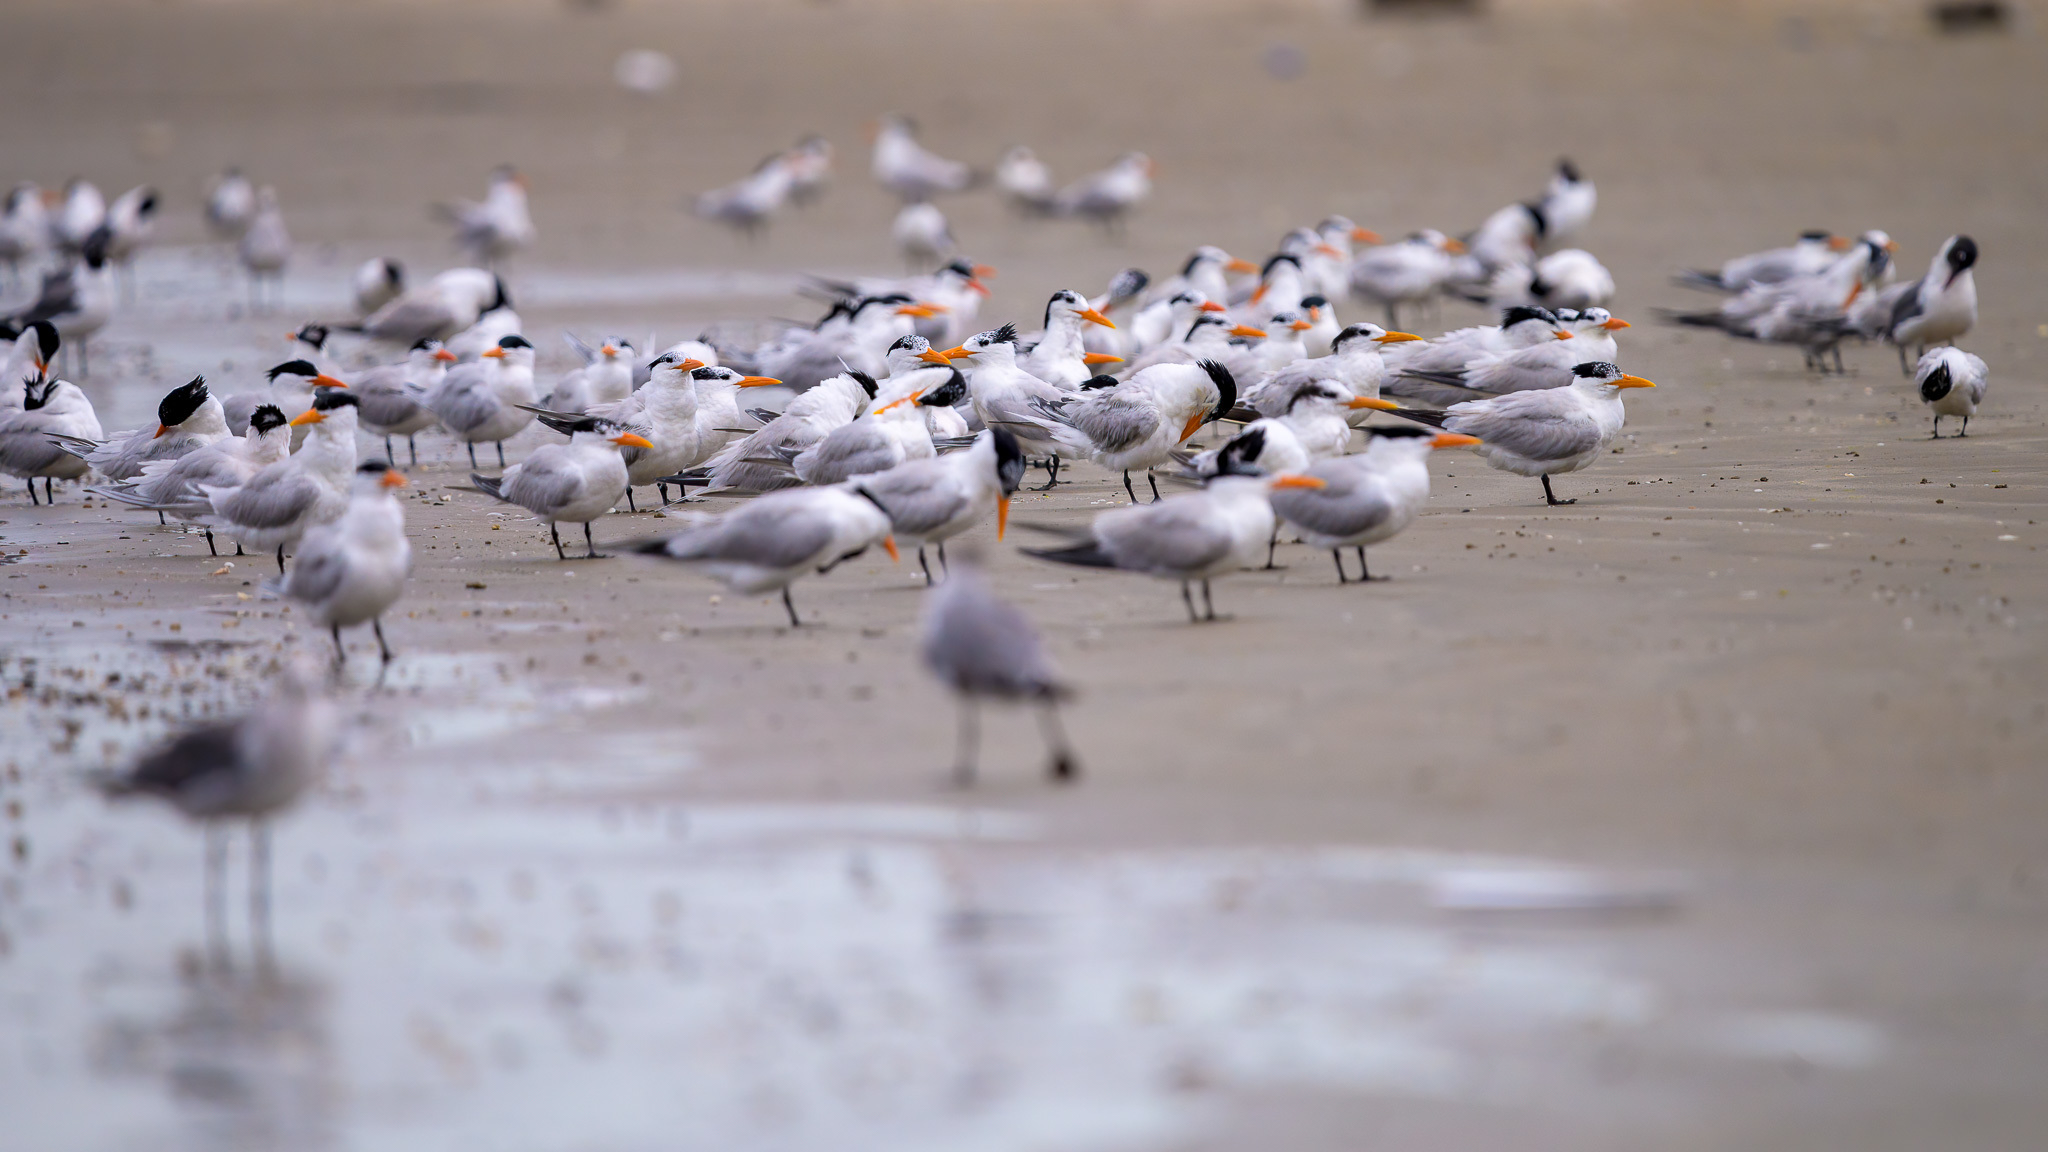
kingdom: Animalia
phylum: Chordata
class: Aves
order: Charadriiformes
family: Laridae
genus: Thalasseus
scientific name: Thalasseus maximus
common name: Royal tern
